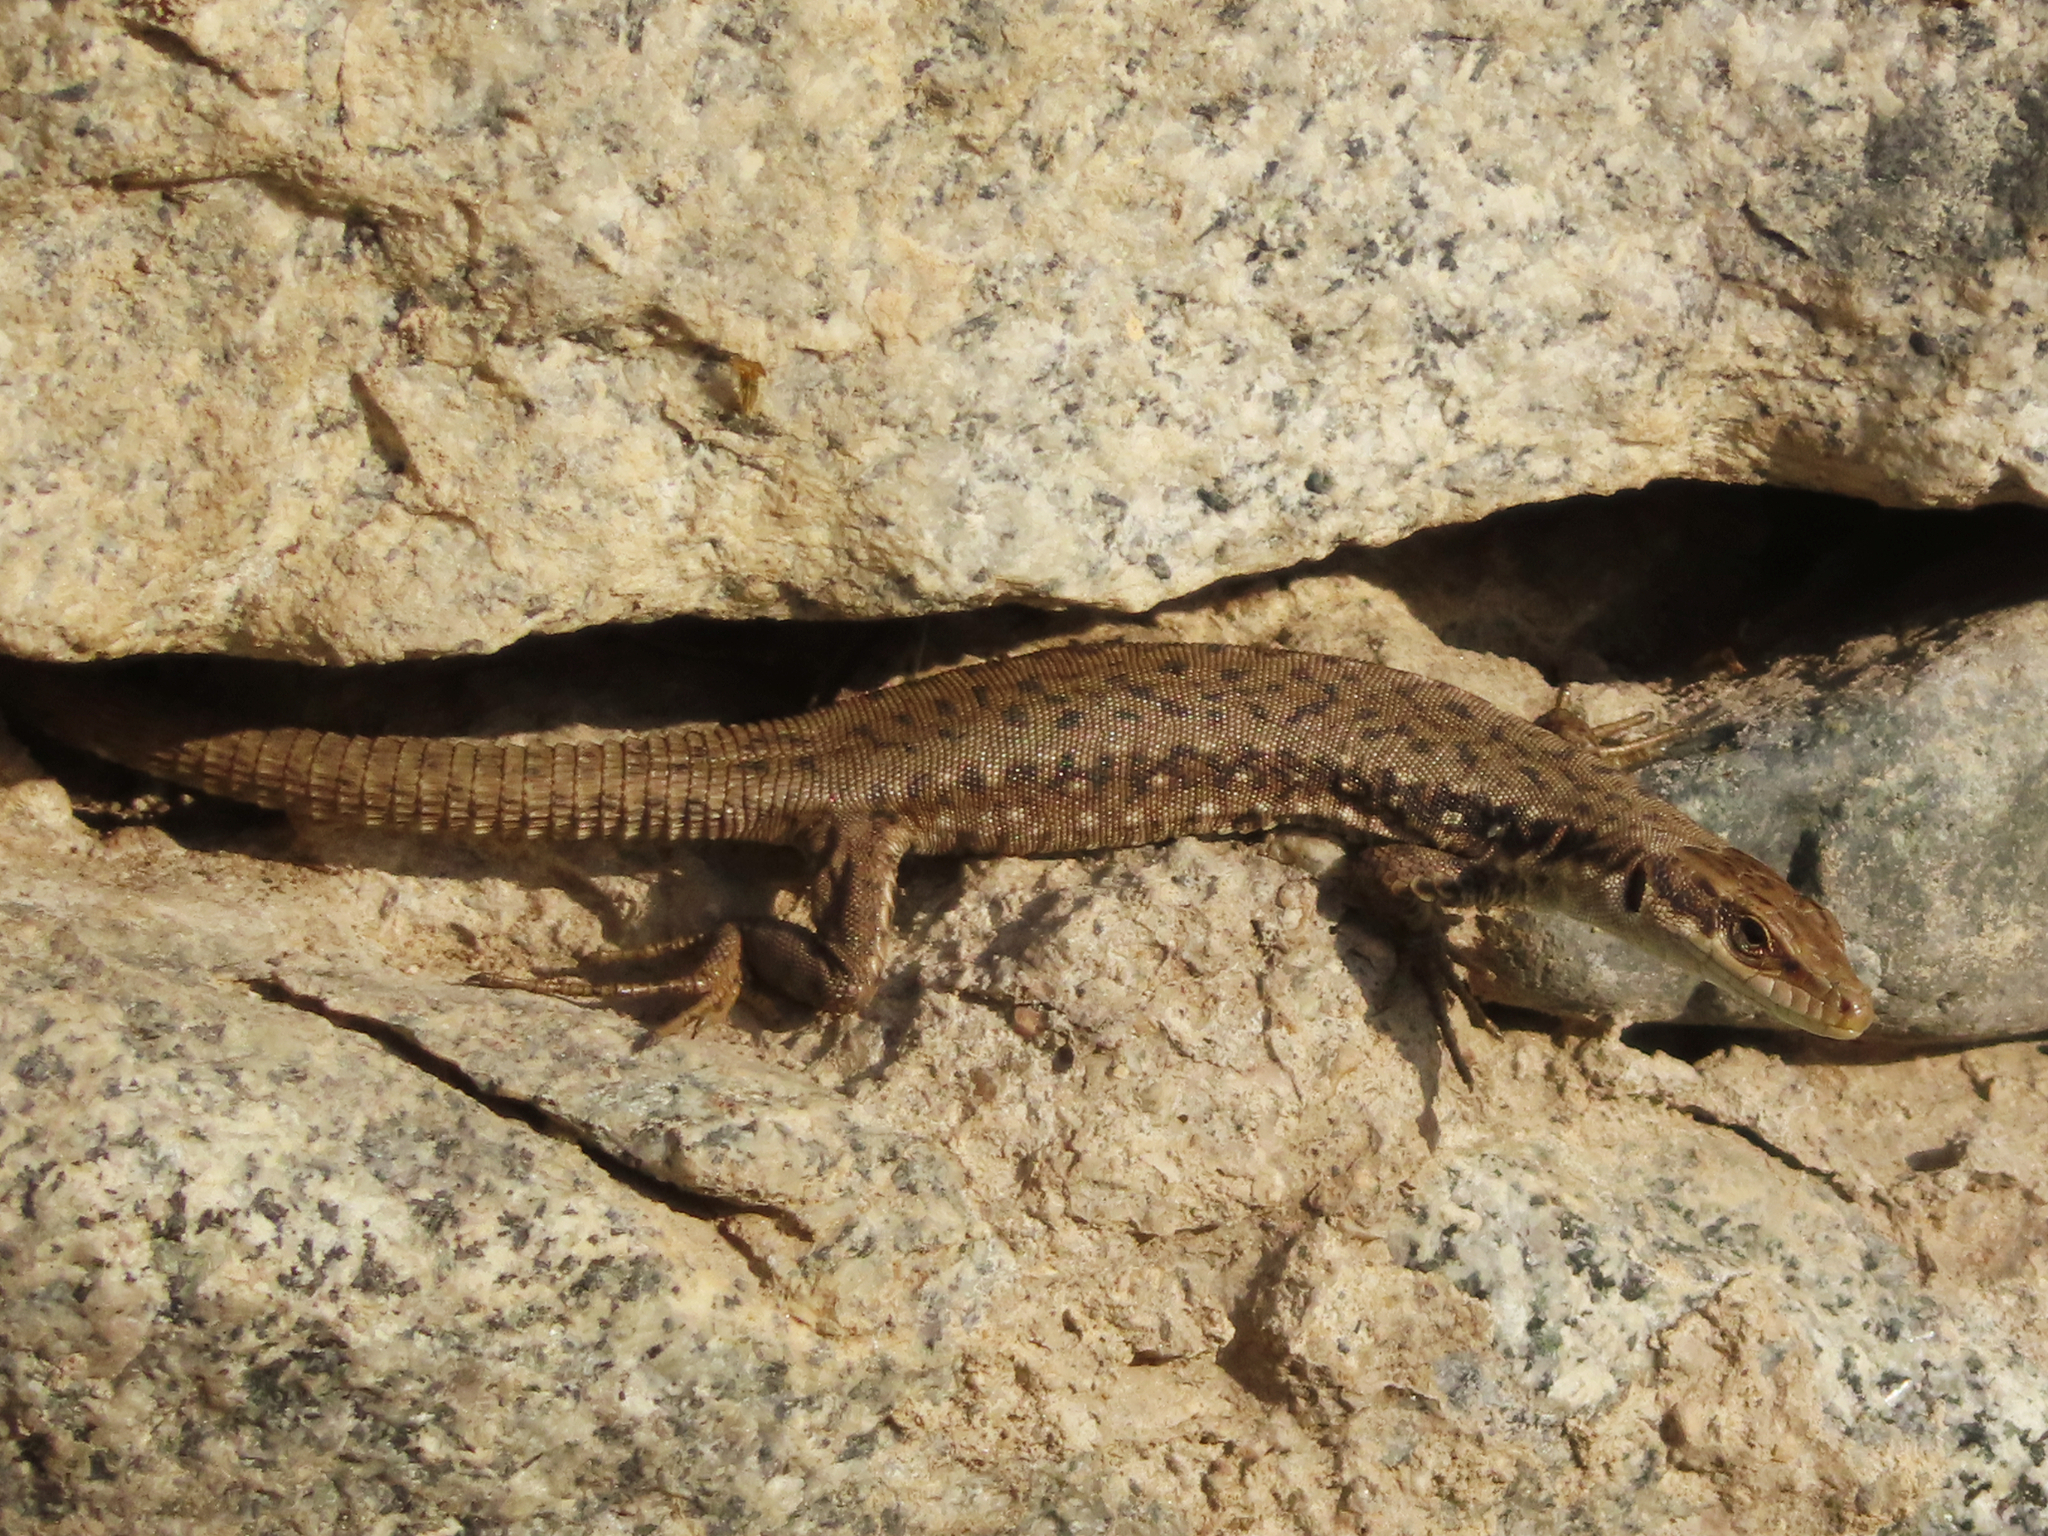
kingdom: Animalia
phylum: Chordata
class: Squamata
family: Lacertidae
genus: Darevskia
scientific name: Darevskia raddei
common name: Radde's lizard
